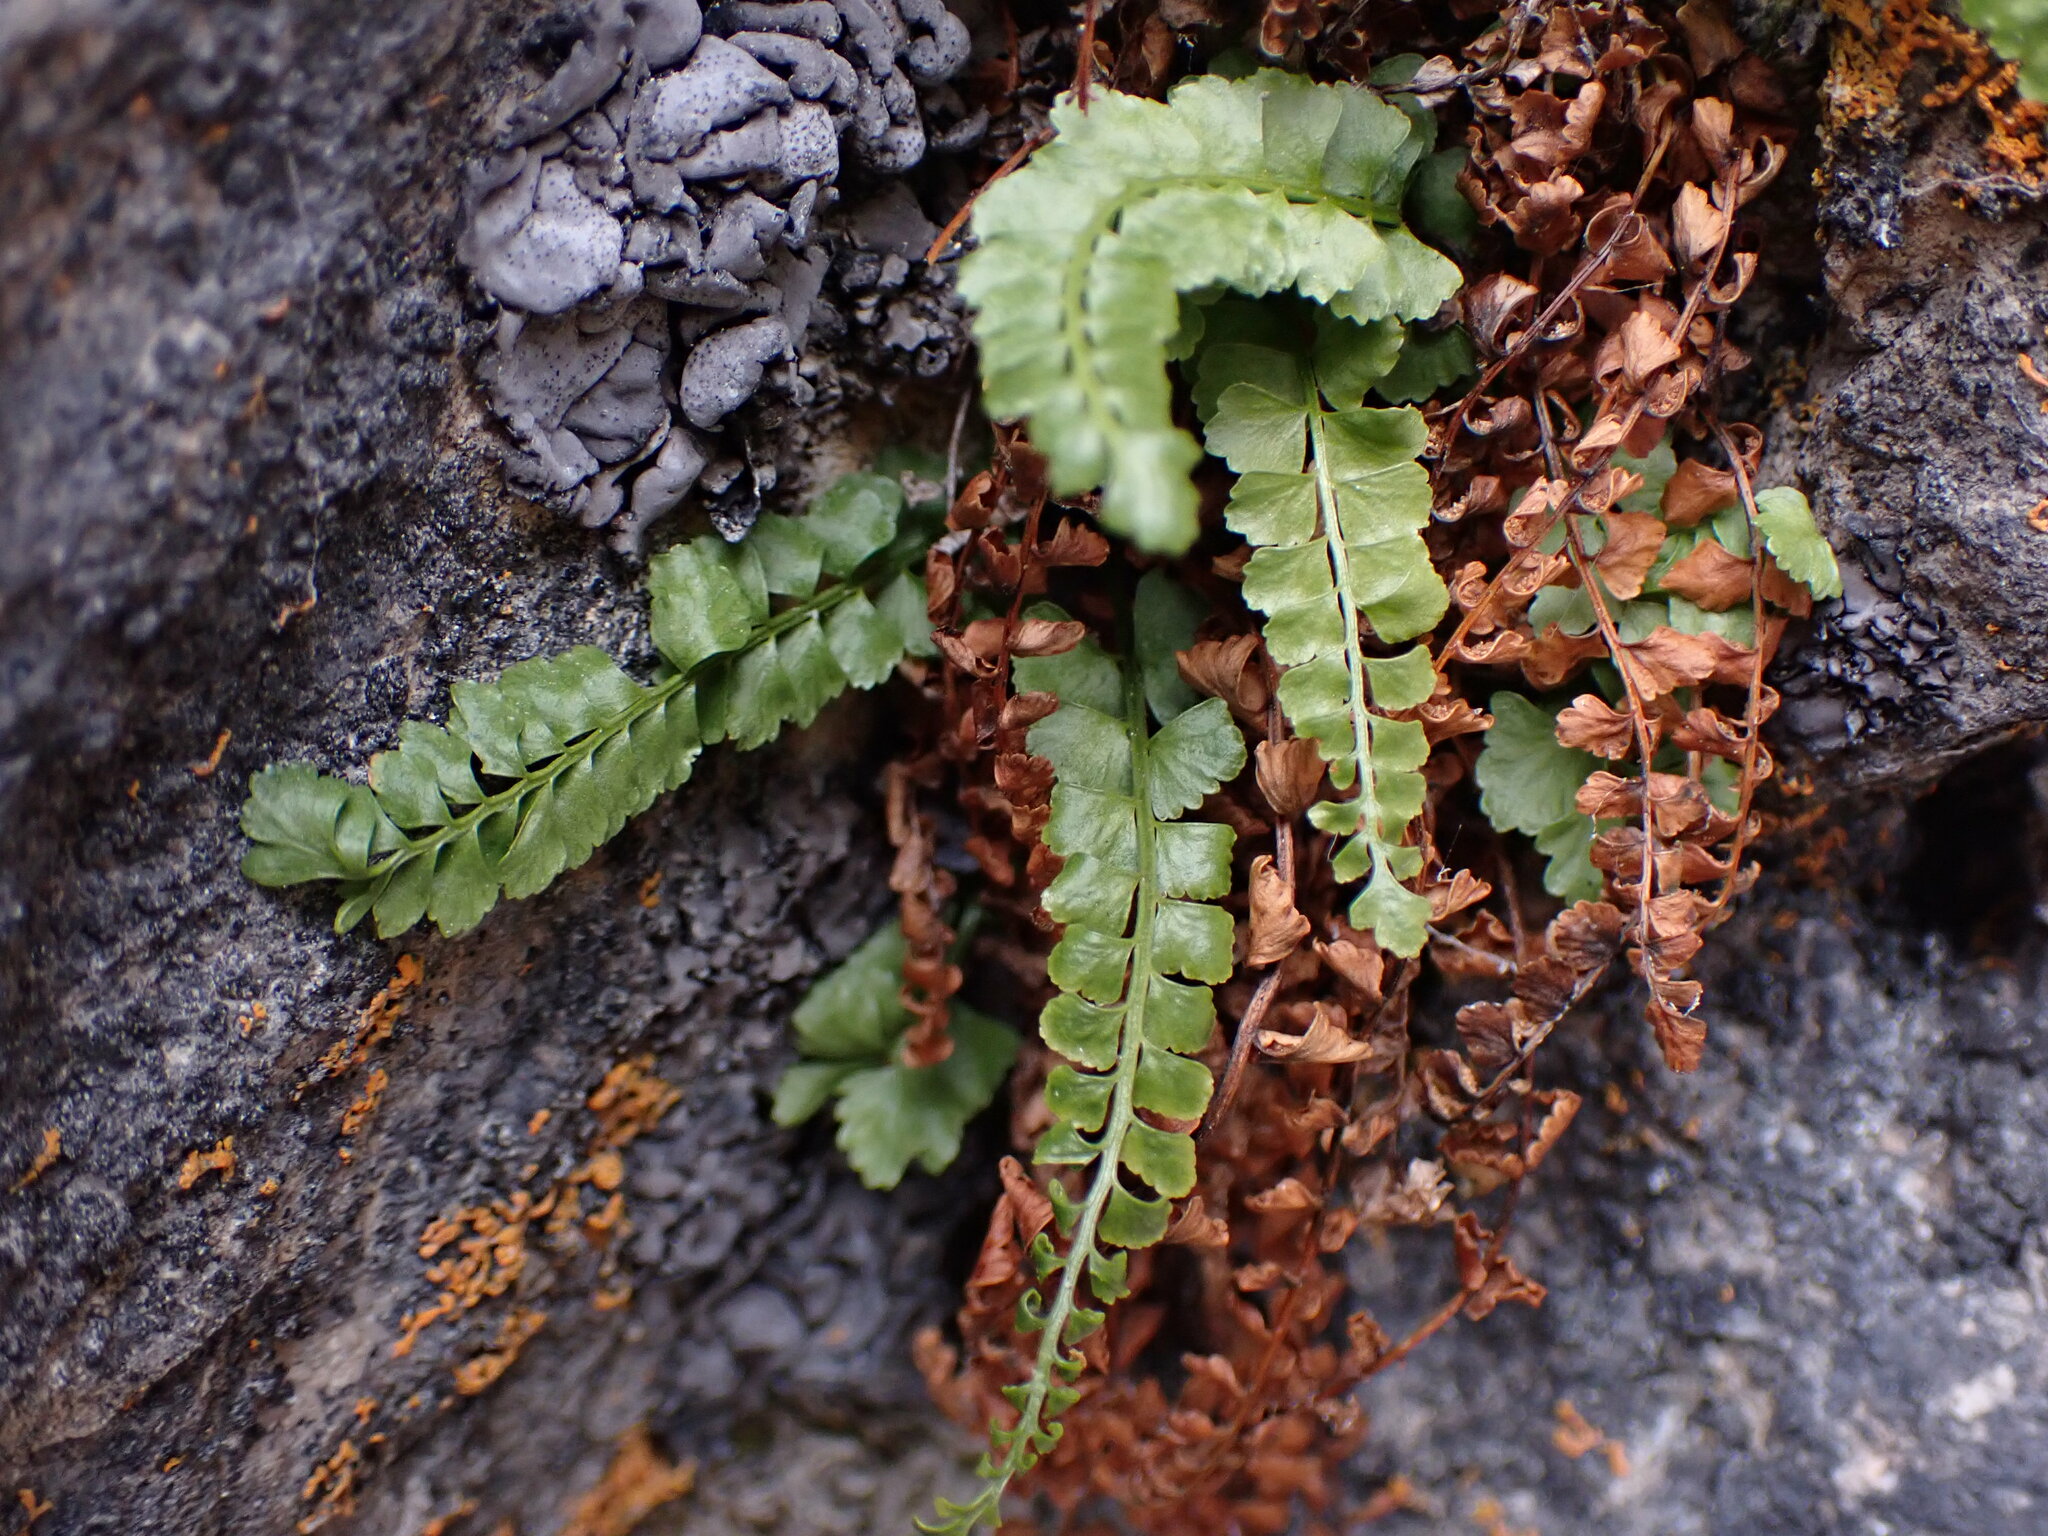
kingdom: Plantae
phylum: Tracheophyta
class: Polypodiopsida
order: Polypodiales
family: Aspleniaceae
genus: Asplenium
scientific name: Asplenium viride
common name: Green spleenwort
